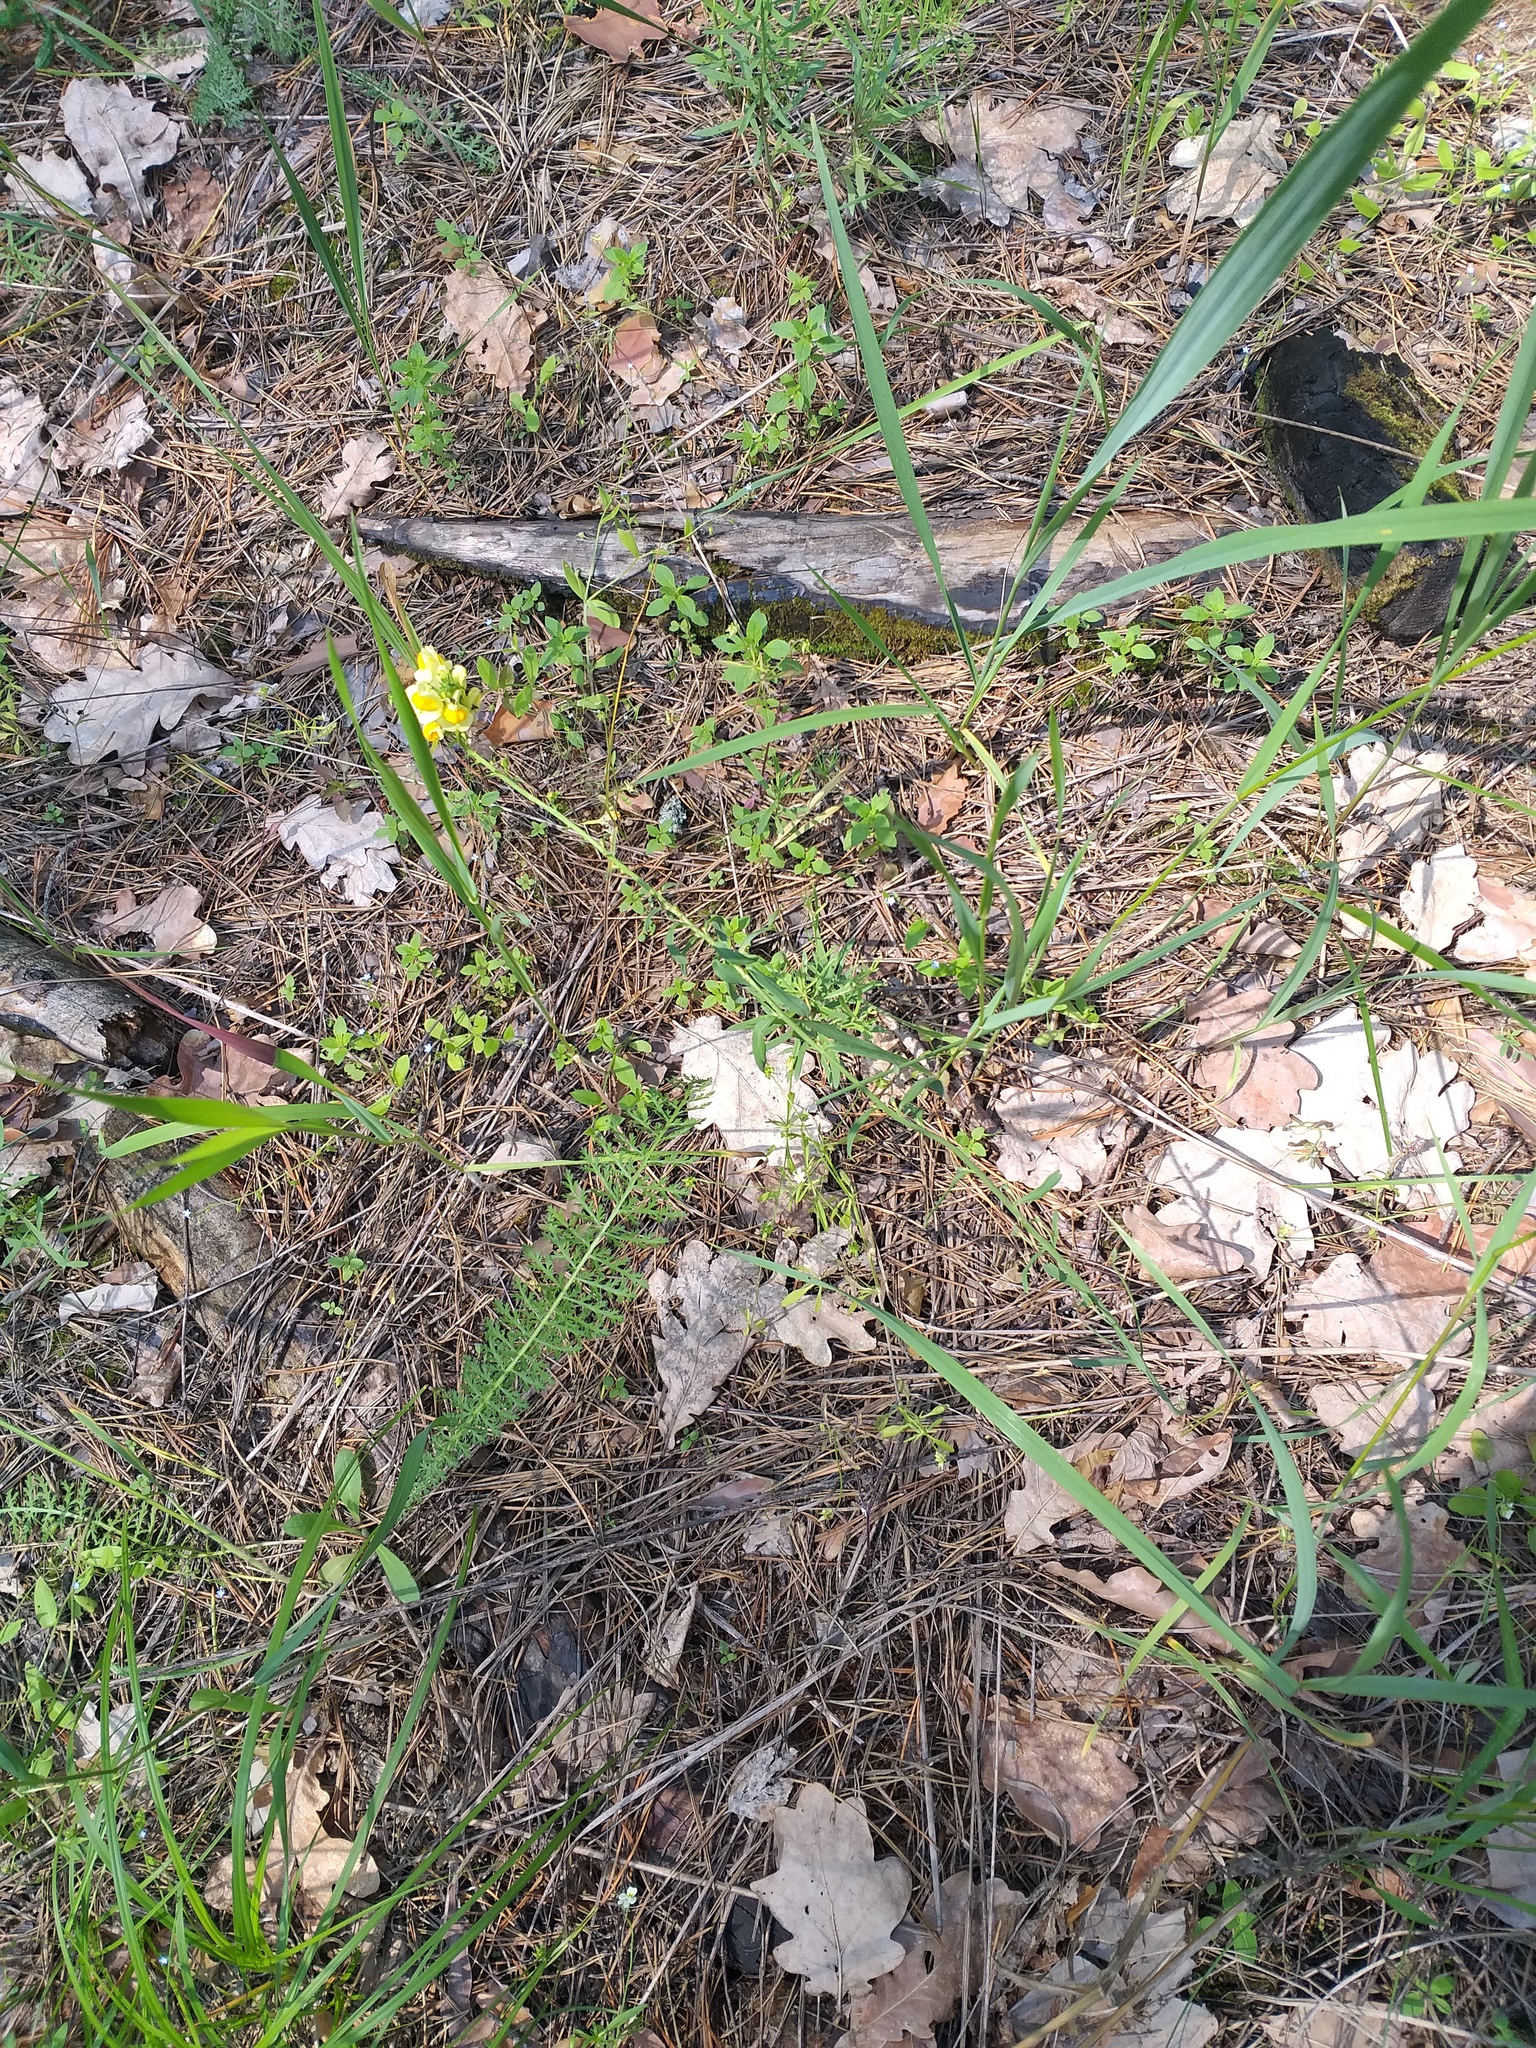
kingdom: Plantae
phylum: Tracheophyta
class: Magnoliopsida
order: Lamiales
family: Plantaginaceae
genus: Linaria
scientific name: Linaria vulgaris
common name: Butter and eggs
